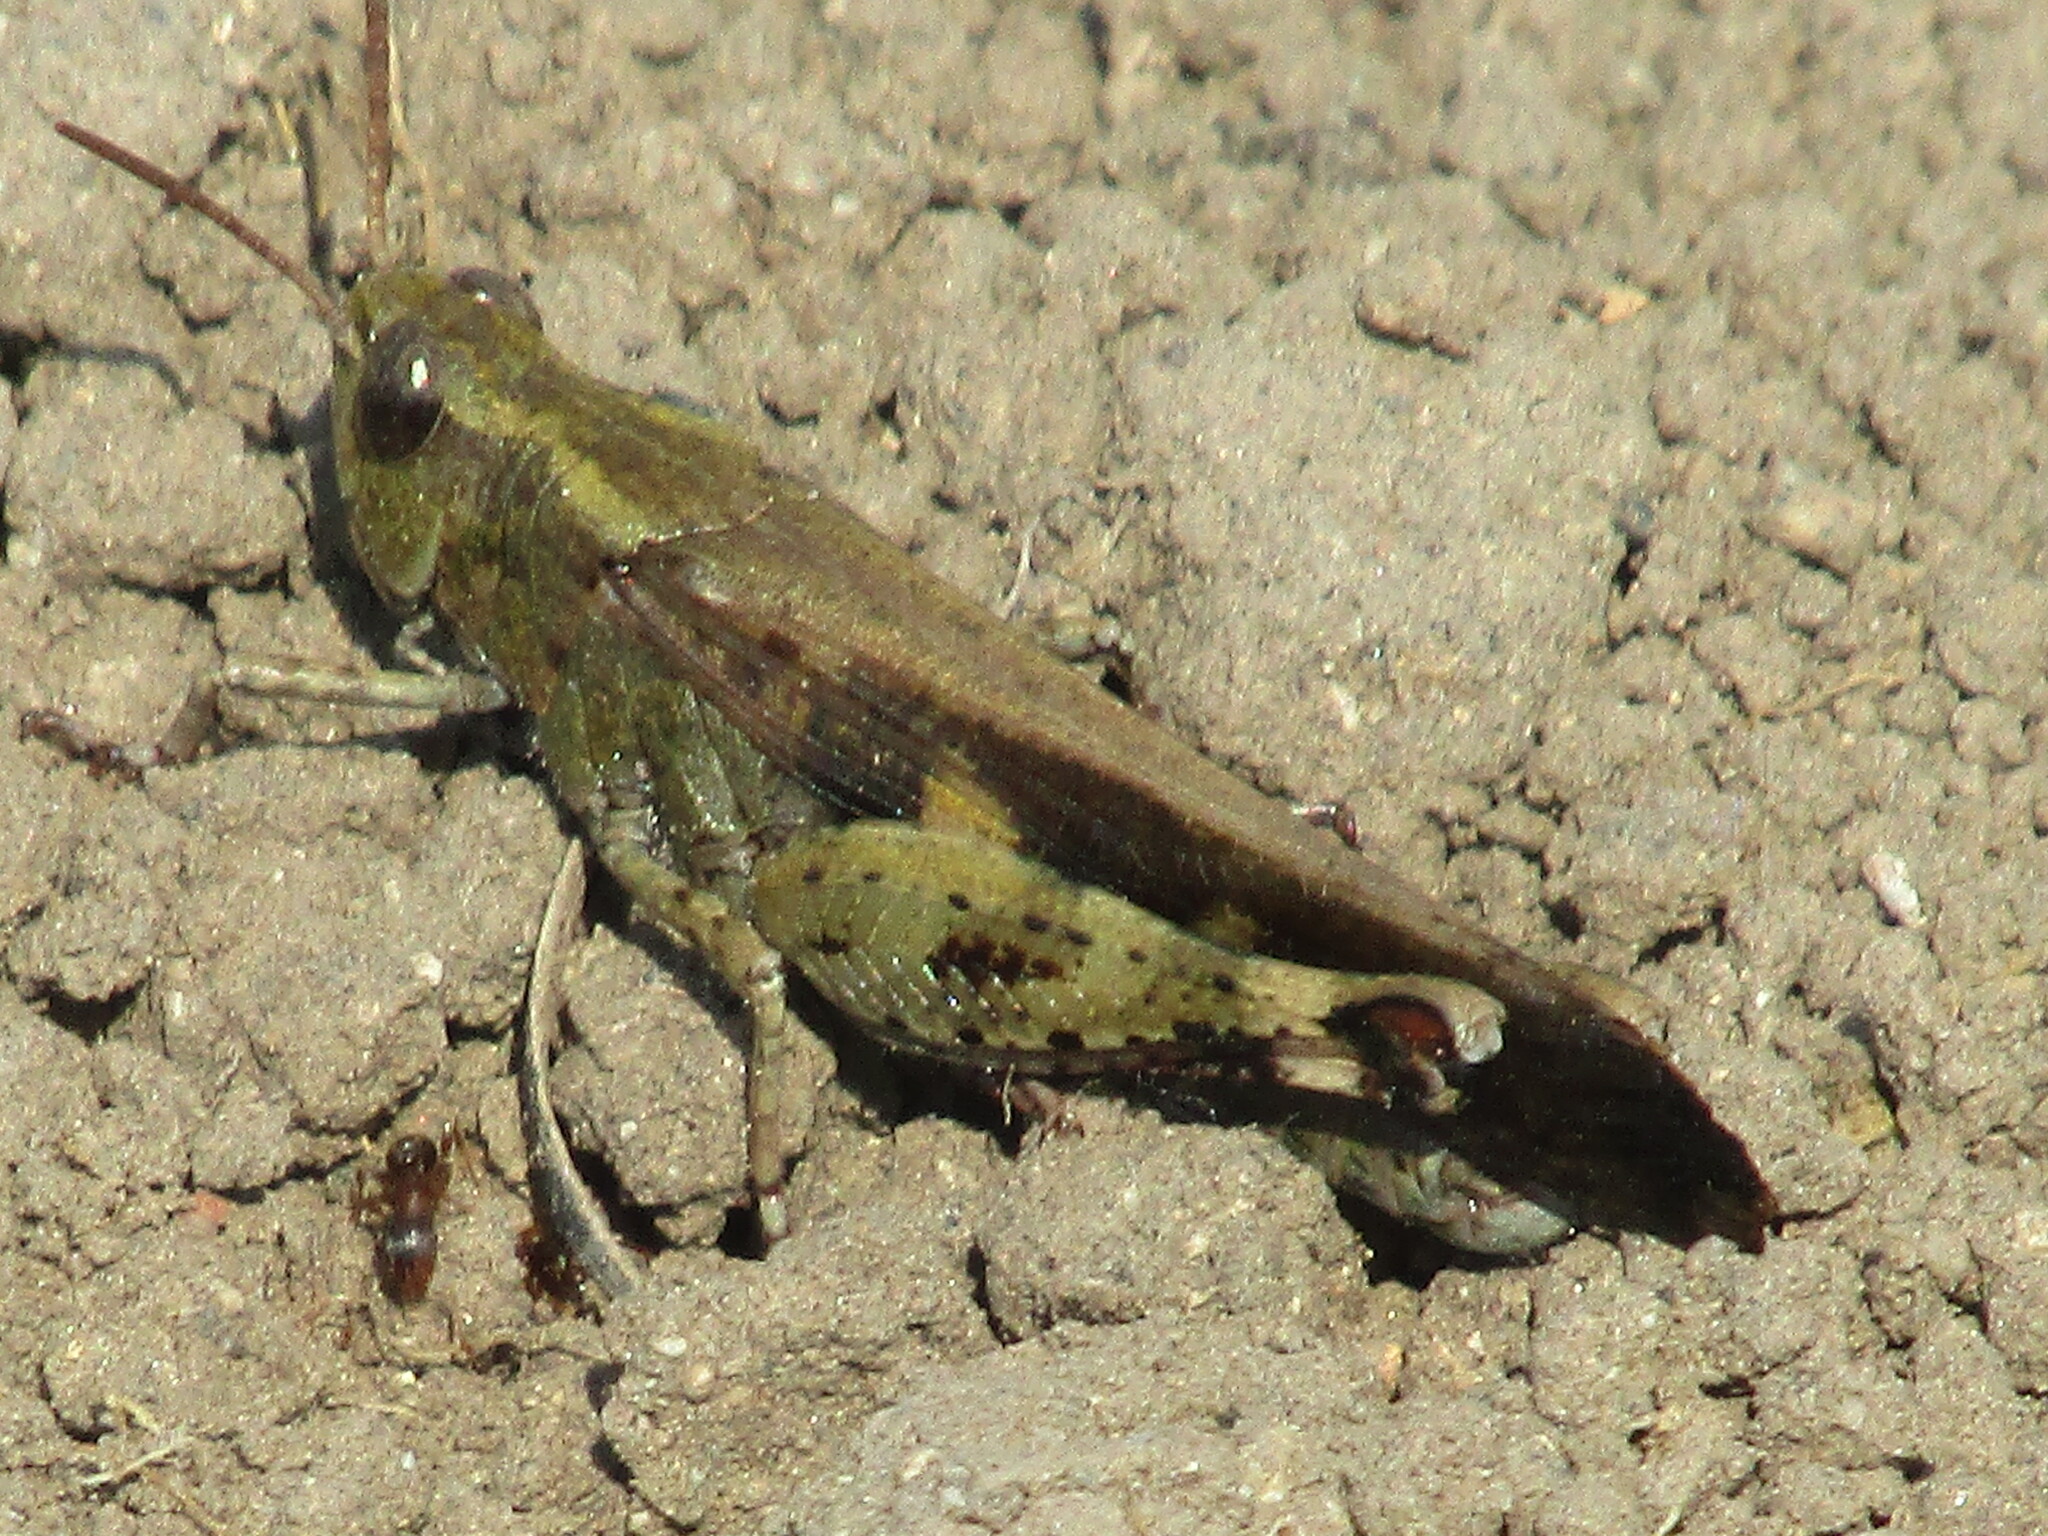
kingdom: Animalia
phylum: Arthropoda
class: Insecta
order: Orthoptera
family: Acrididae
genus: Aiolopus
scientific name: Aiolopus strepens
